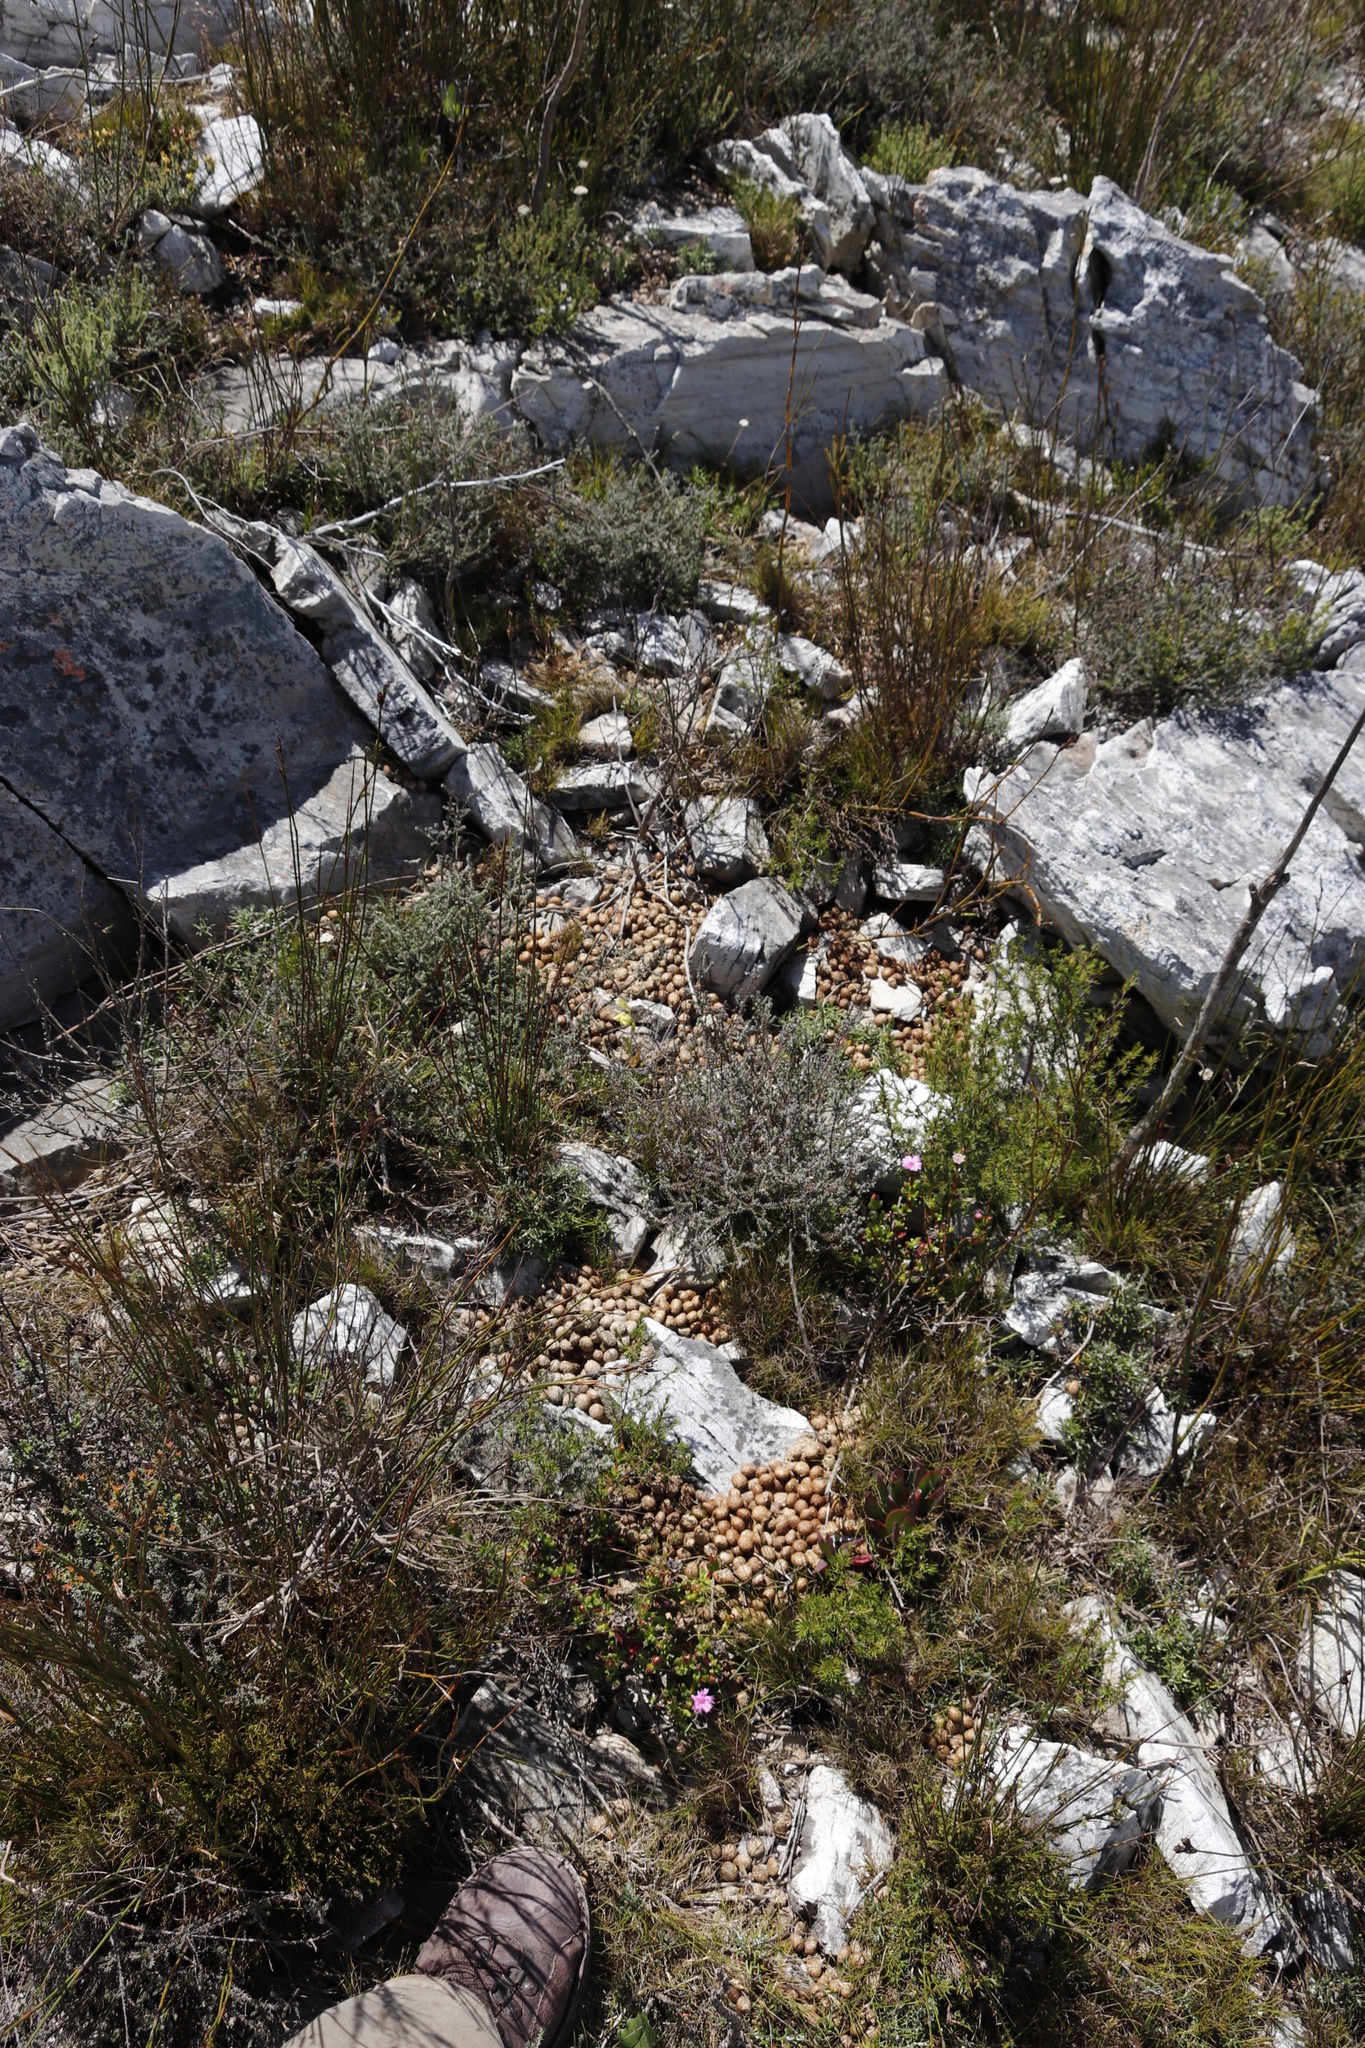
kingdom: Animalia
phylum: Chordata
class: Mammalia
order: Lagomorpha
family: Leporidae
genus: Pronolagus
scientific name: Pronolagus saundersiae
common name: Hewitt's red rock hare
